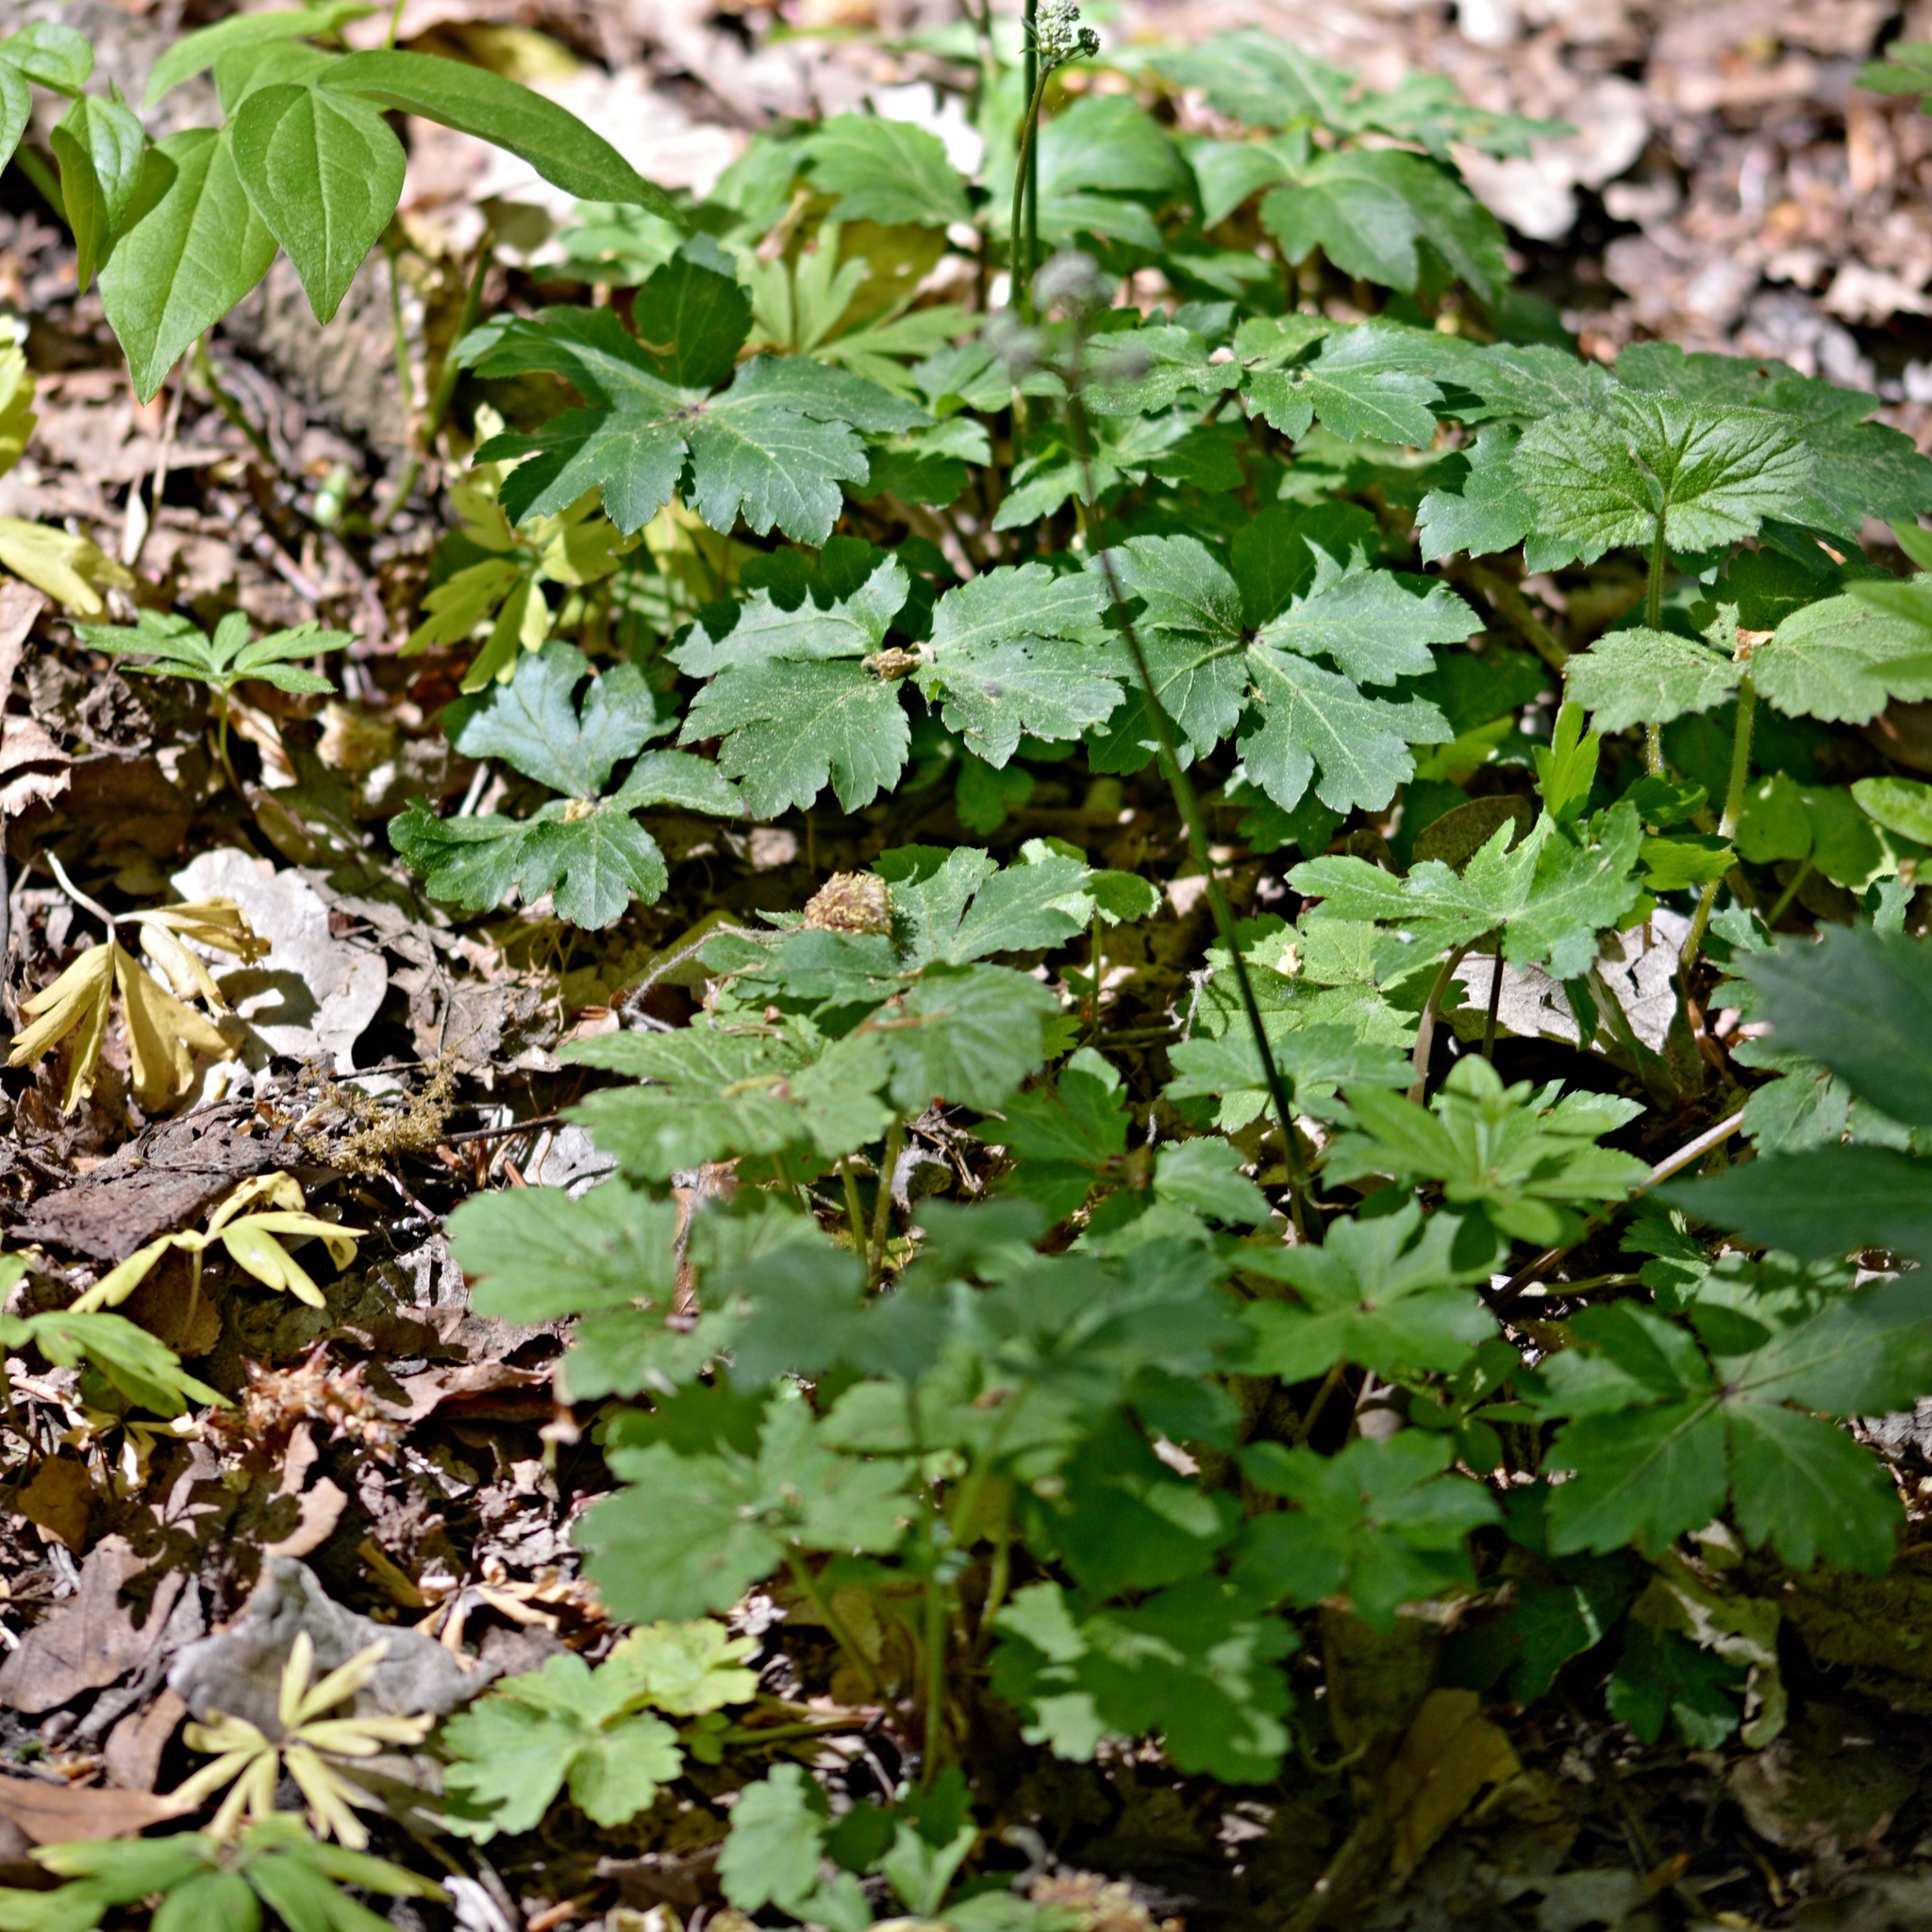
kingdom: Plantae
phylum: Tracheophyta
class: Magnoliopsida
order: Apiales
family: Apiaceae
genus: Sanicula
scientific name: Sanicula europaea
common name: Sanicle
